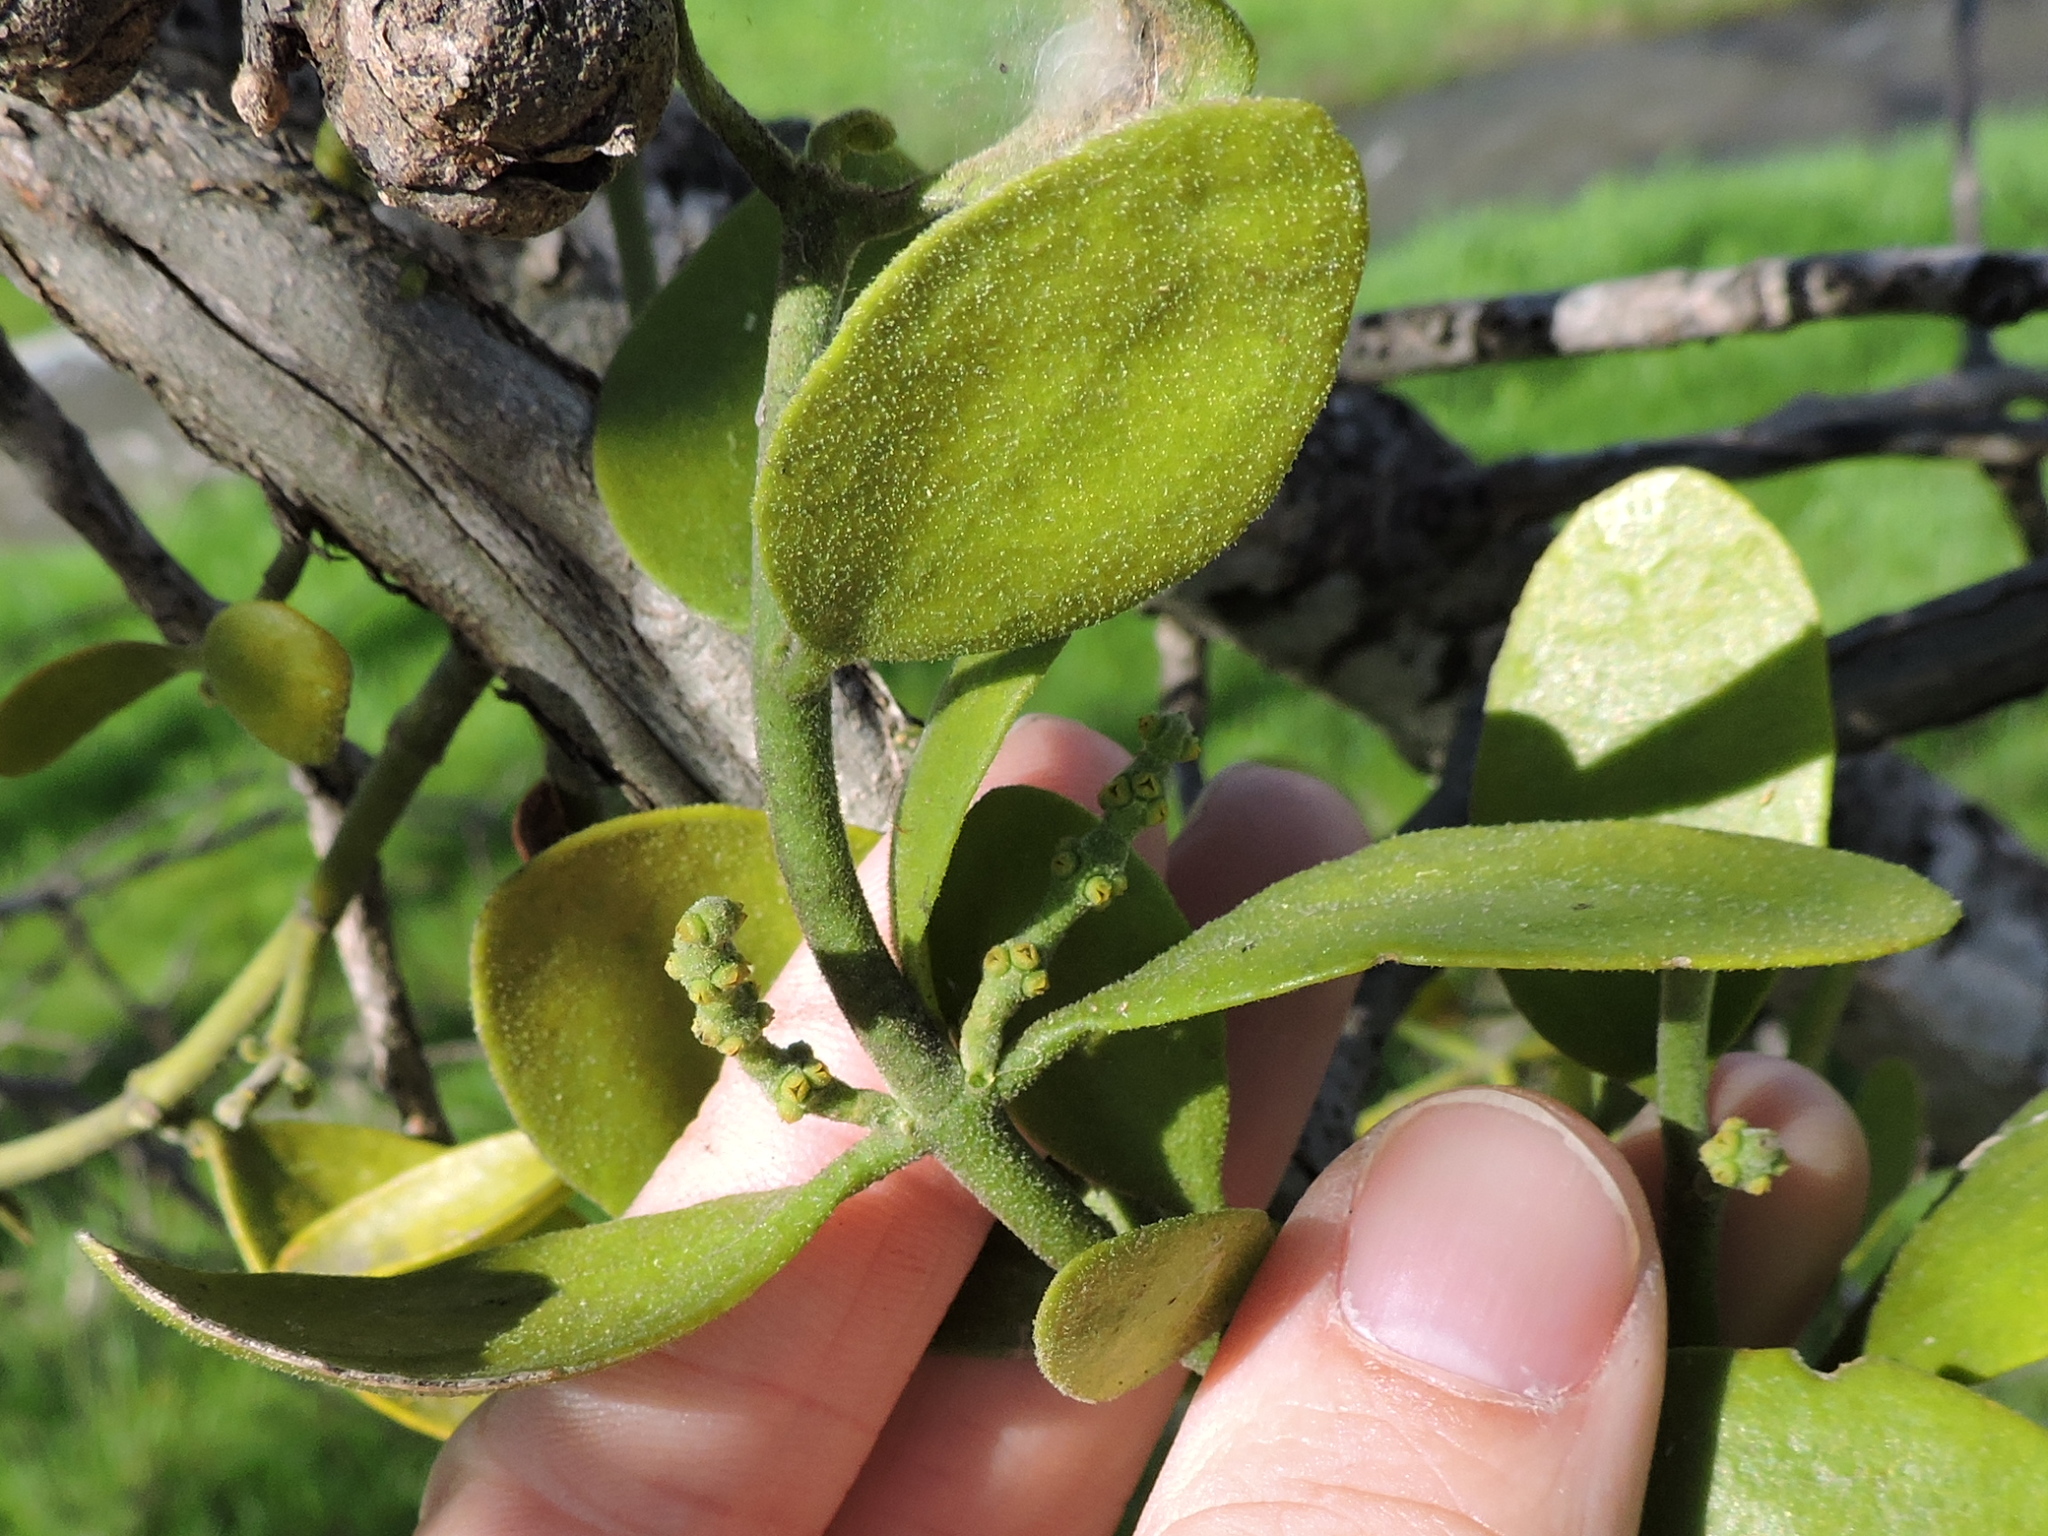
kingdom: Plantae
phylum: Tracheophyta
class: Magnoliopsida
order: Santalales
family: Viscaceae
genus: Phoradendron
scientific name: Phoradendron leucarpum
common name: Pacific mistletoe
